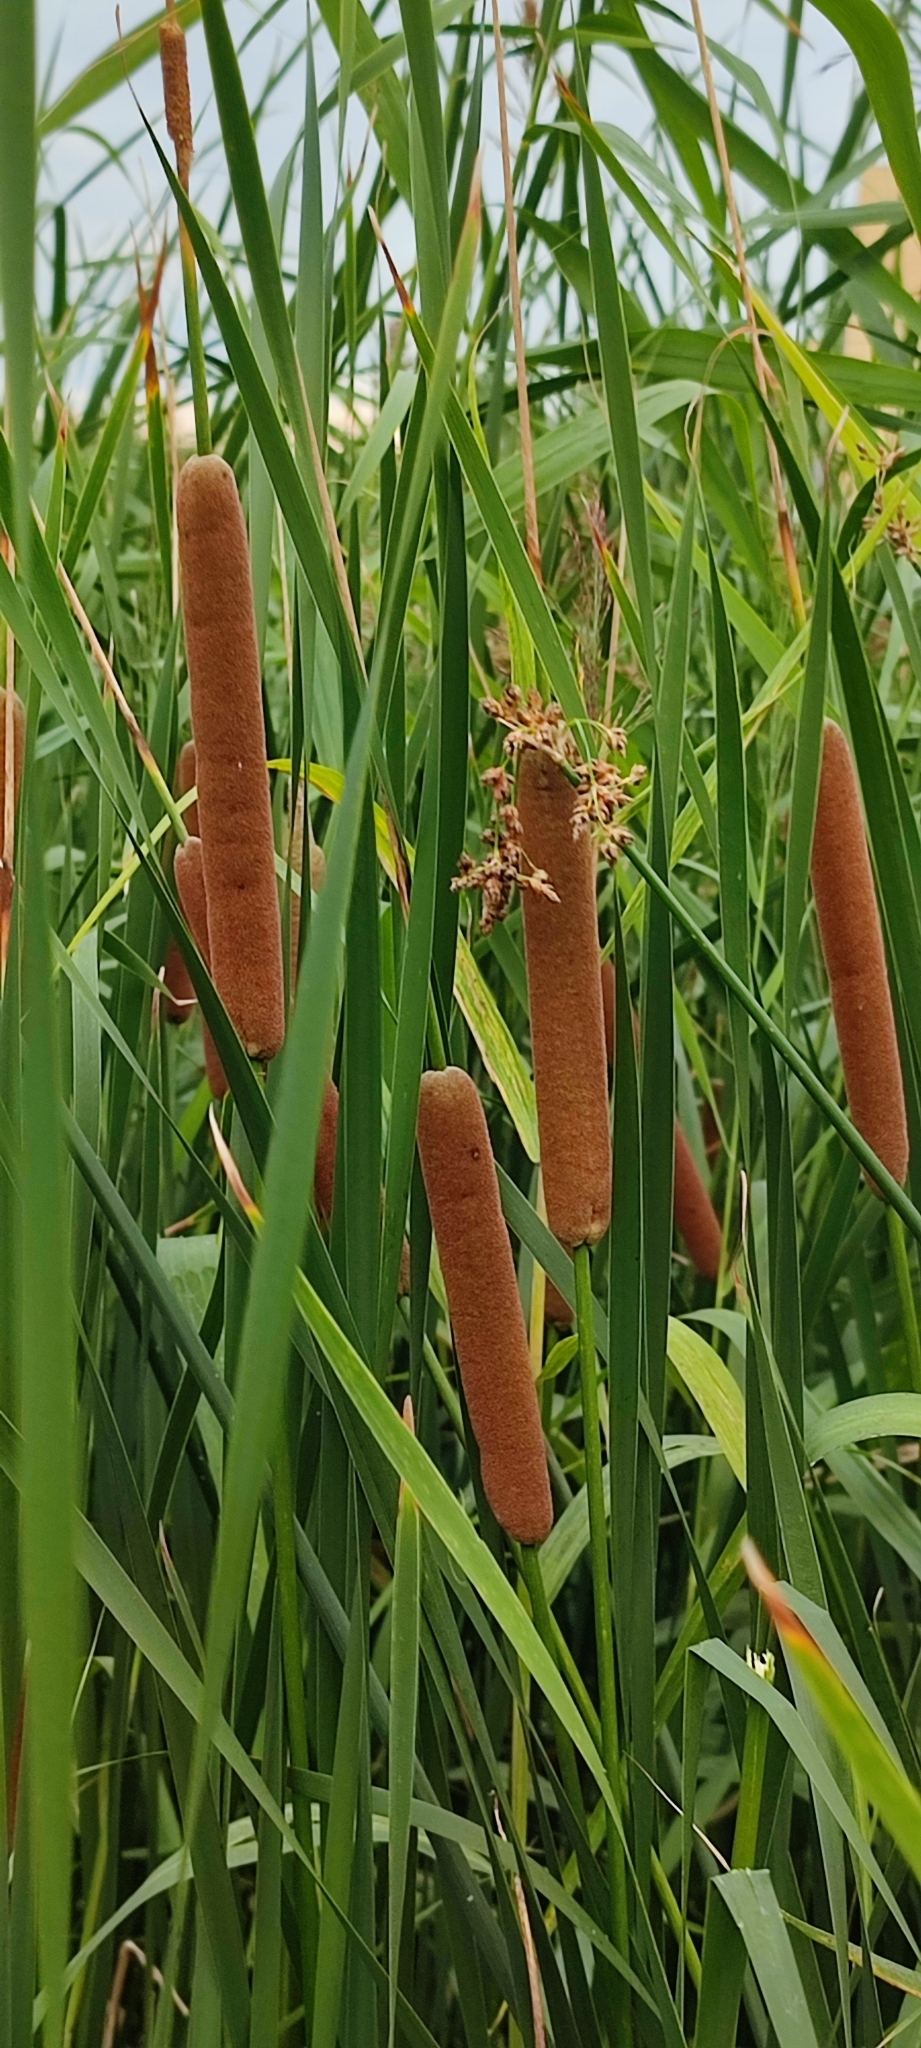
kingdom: Plantae
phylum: Tracheophyta
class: Liliopsida
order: Poales
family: Typhaceae
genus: Typha
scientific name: Typha linnaei
